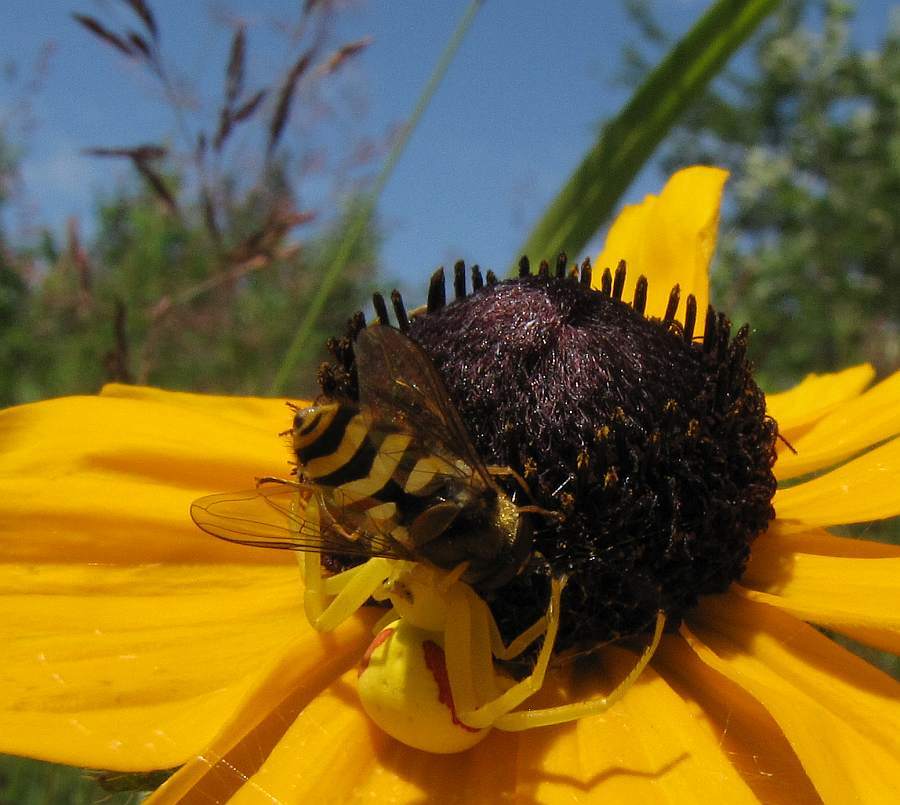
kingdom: Animalia
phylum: Arthropoda
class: Arachnida
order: Araneae
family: Thomisidae
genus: Misumena
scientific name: Misumena vatia
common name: Goldenrod crab spider
